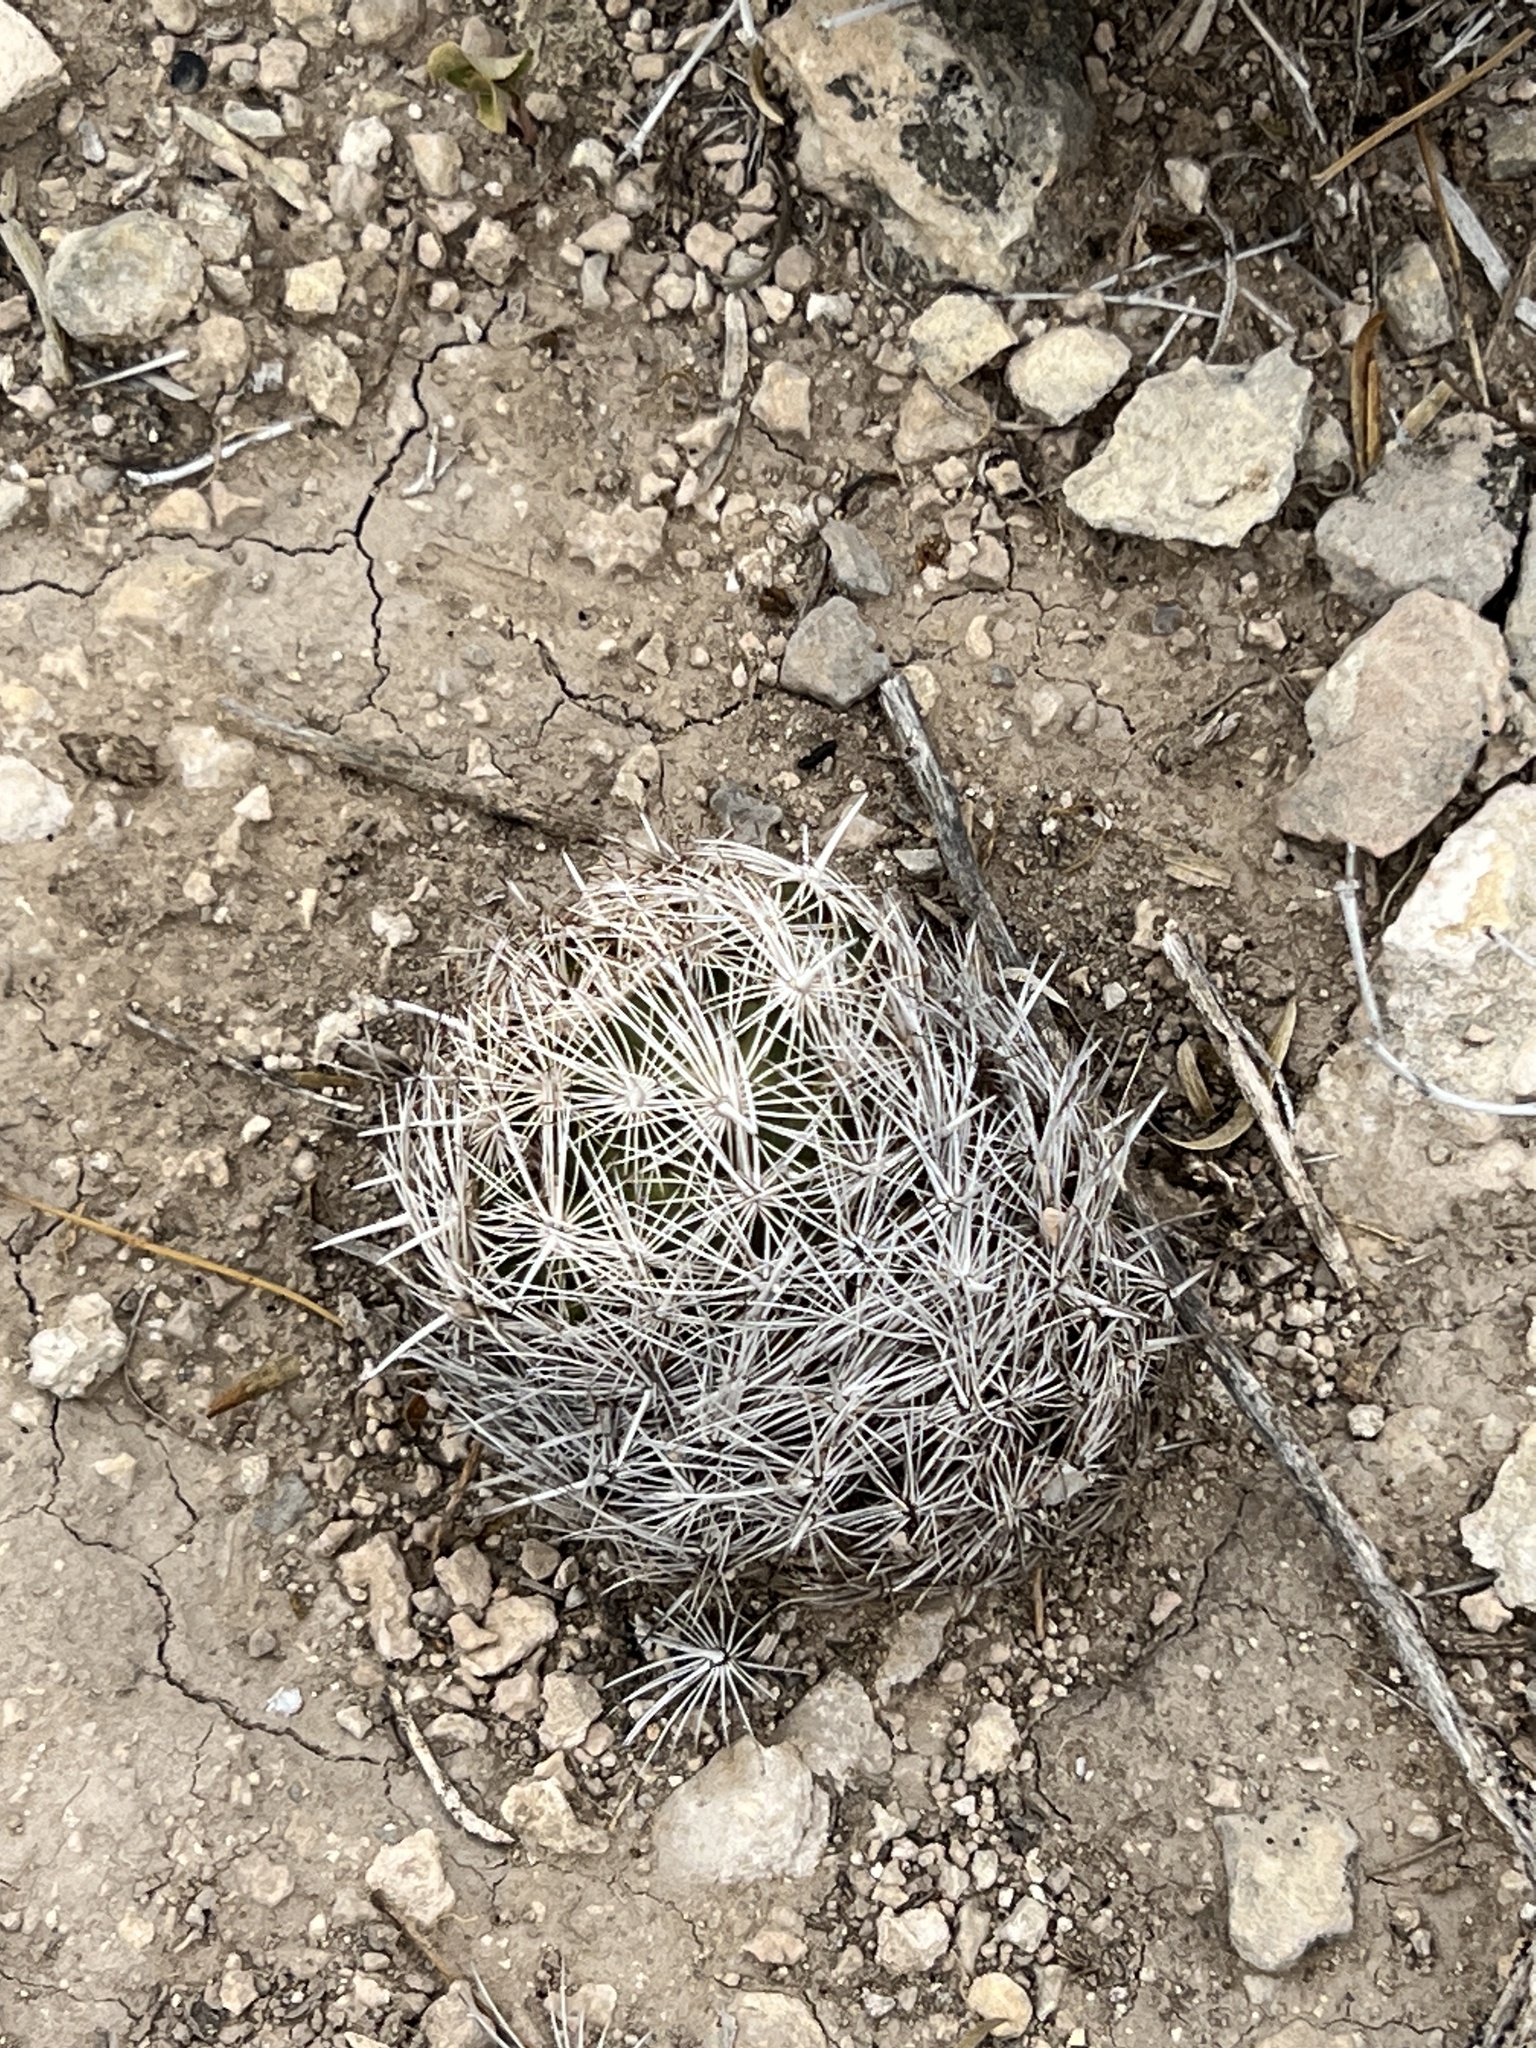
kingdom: Plantae
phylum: Tracheophyta
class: Magnoliopsida
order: Caryophyllales
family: Cactaceae
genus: Coryphantha
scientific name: Coryphantha echinus
